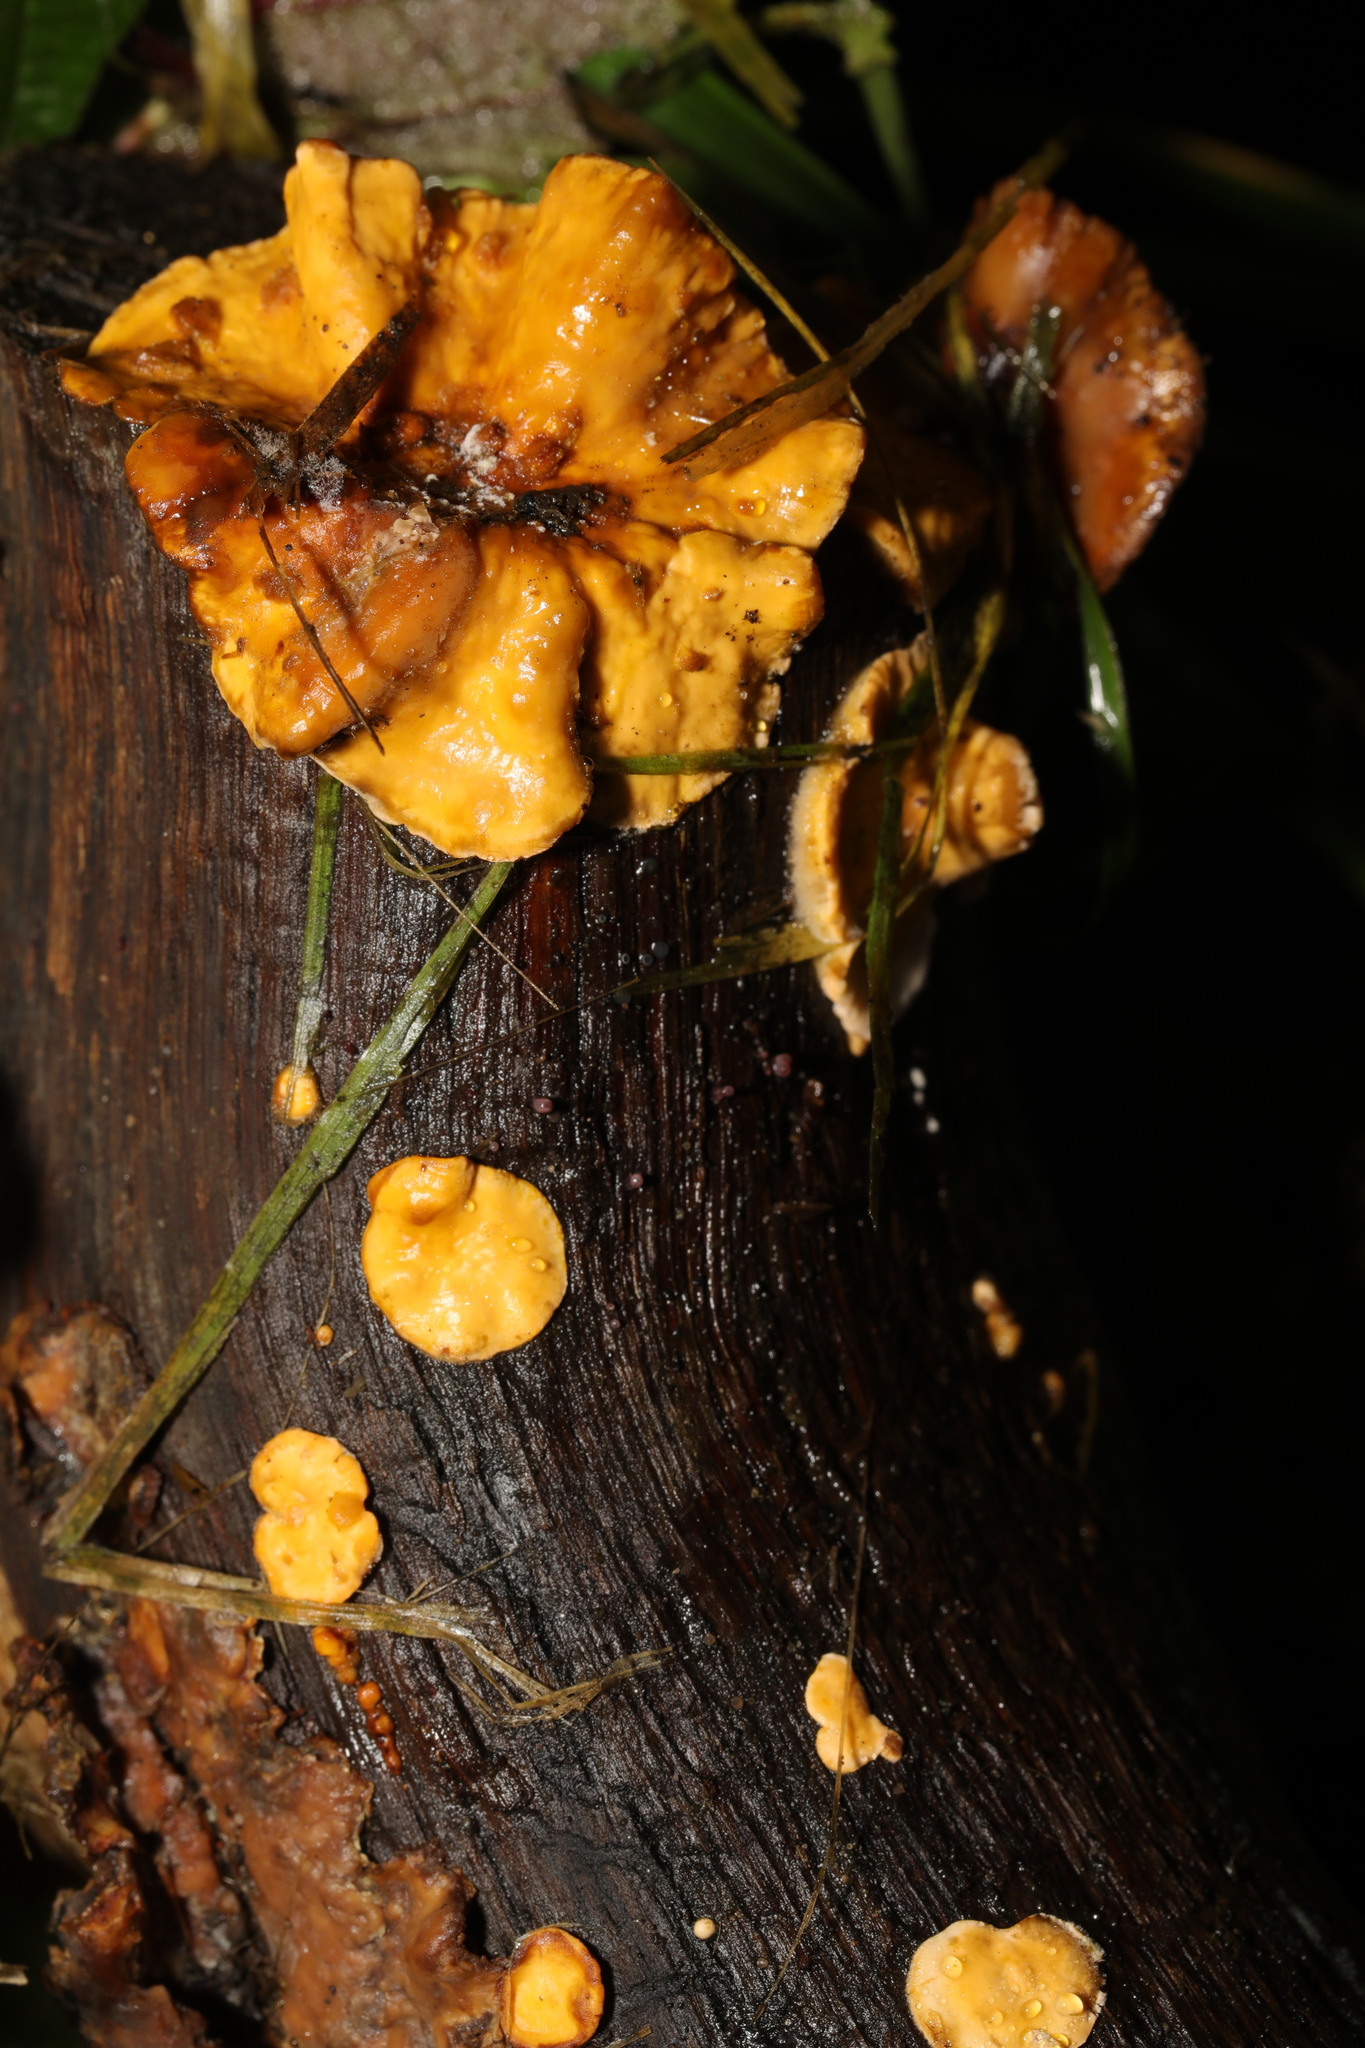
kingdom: Fungi
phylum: Basidiomycota
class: Agaricomycetes
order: Russulales
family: Stereaceae
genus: Stereum
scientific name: Stereum hirsutum
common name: Hairy curtain crust
